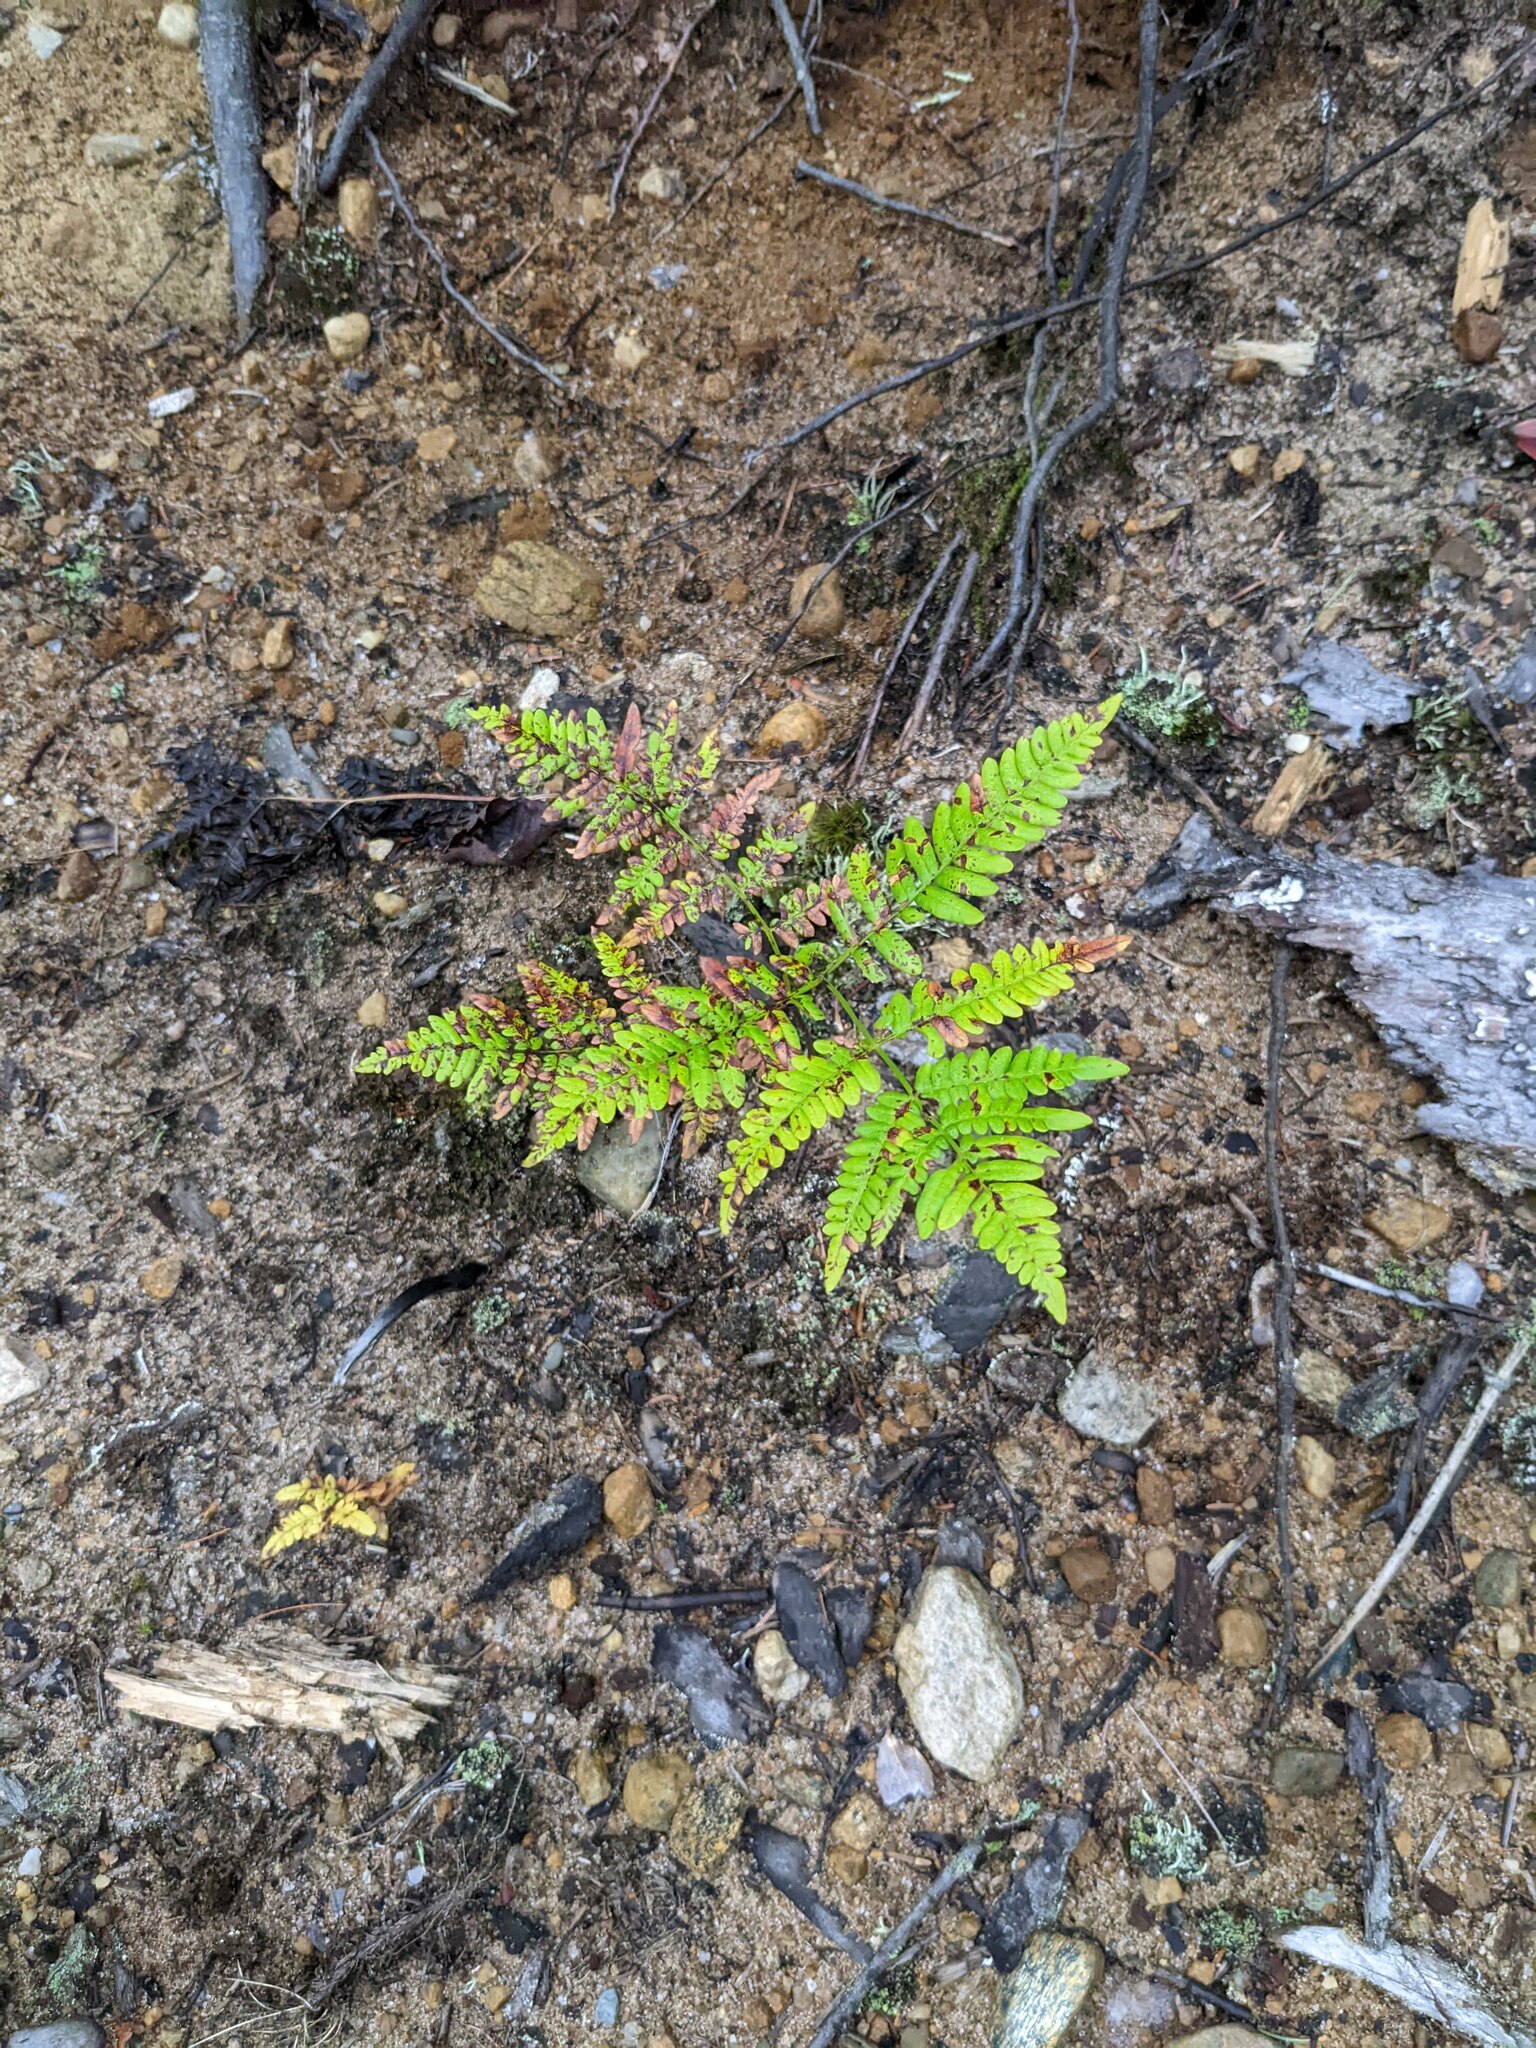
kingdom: Plantae
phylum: Tracheophyta
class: Polypodiopsida
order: Polypodiales
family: Dennstaedtiaceae
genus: Pteridium
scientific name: Pteridium aquilinum
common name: Bracken
